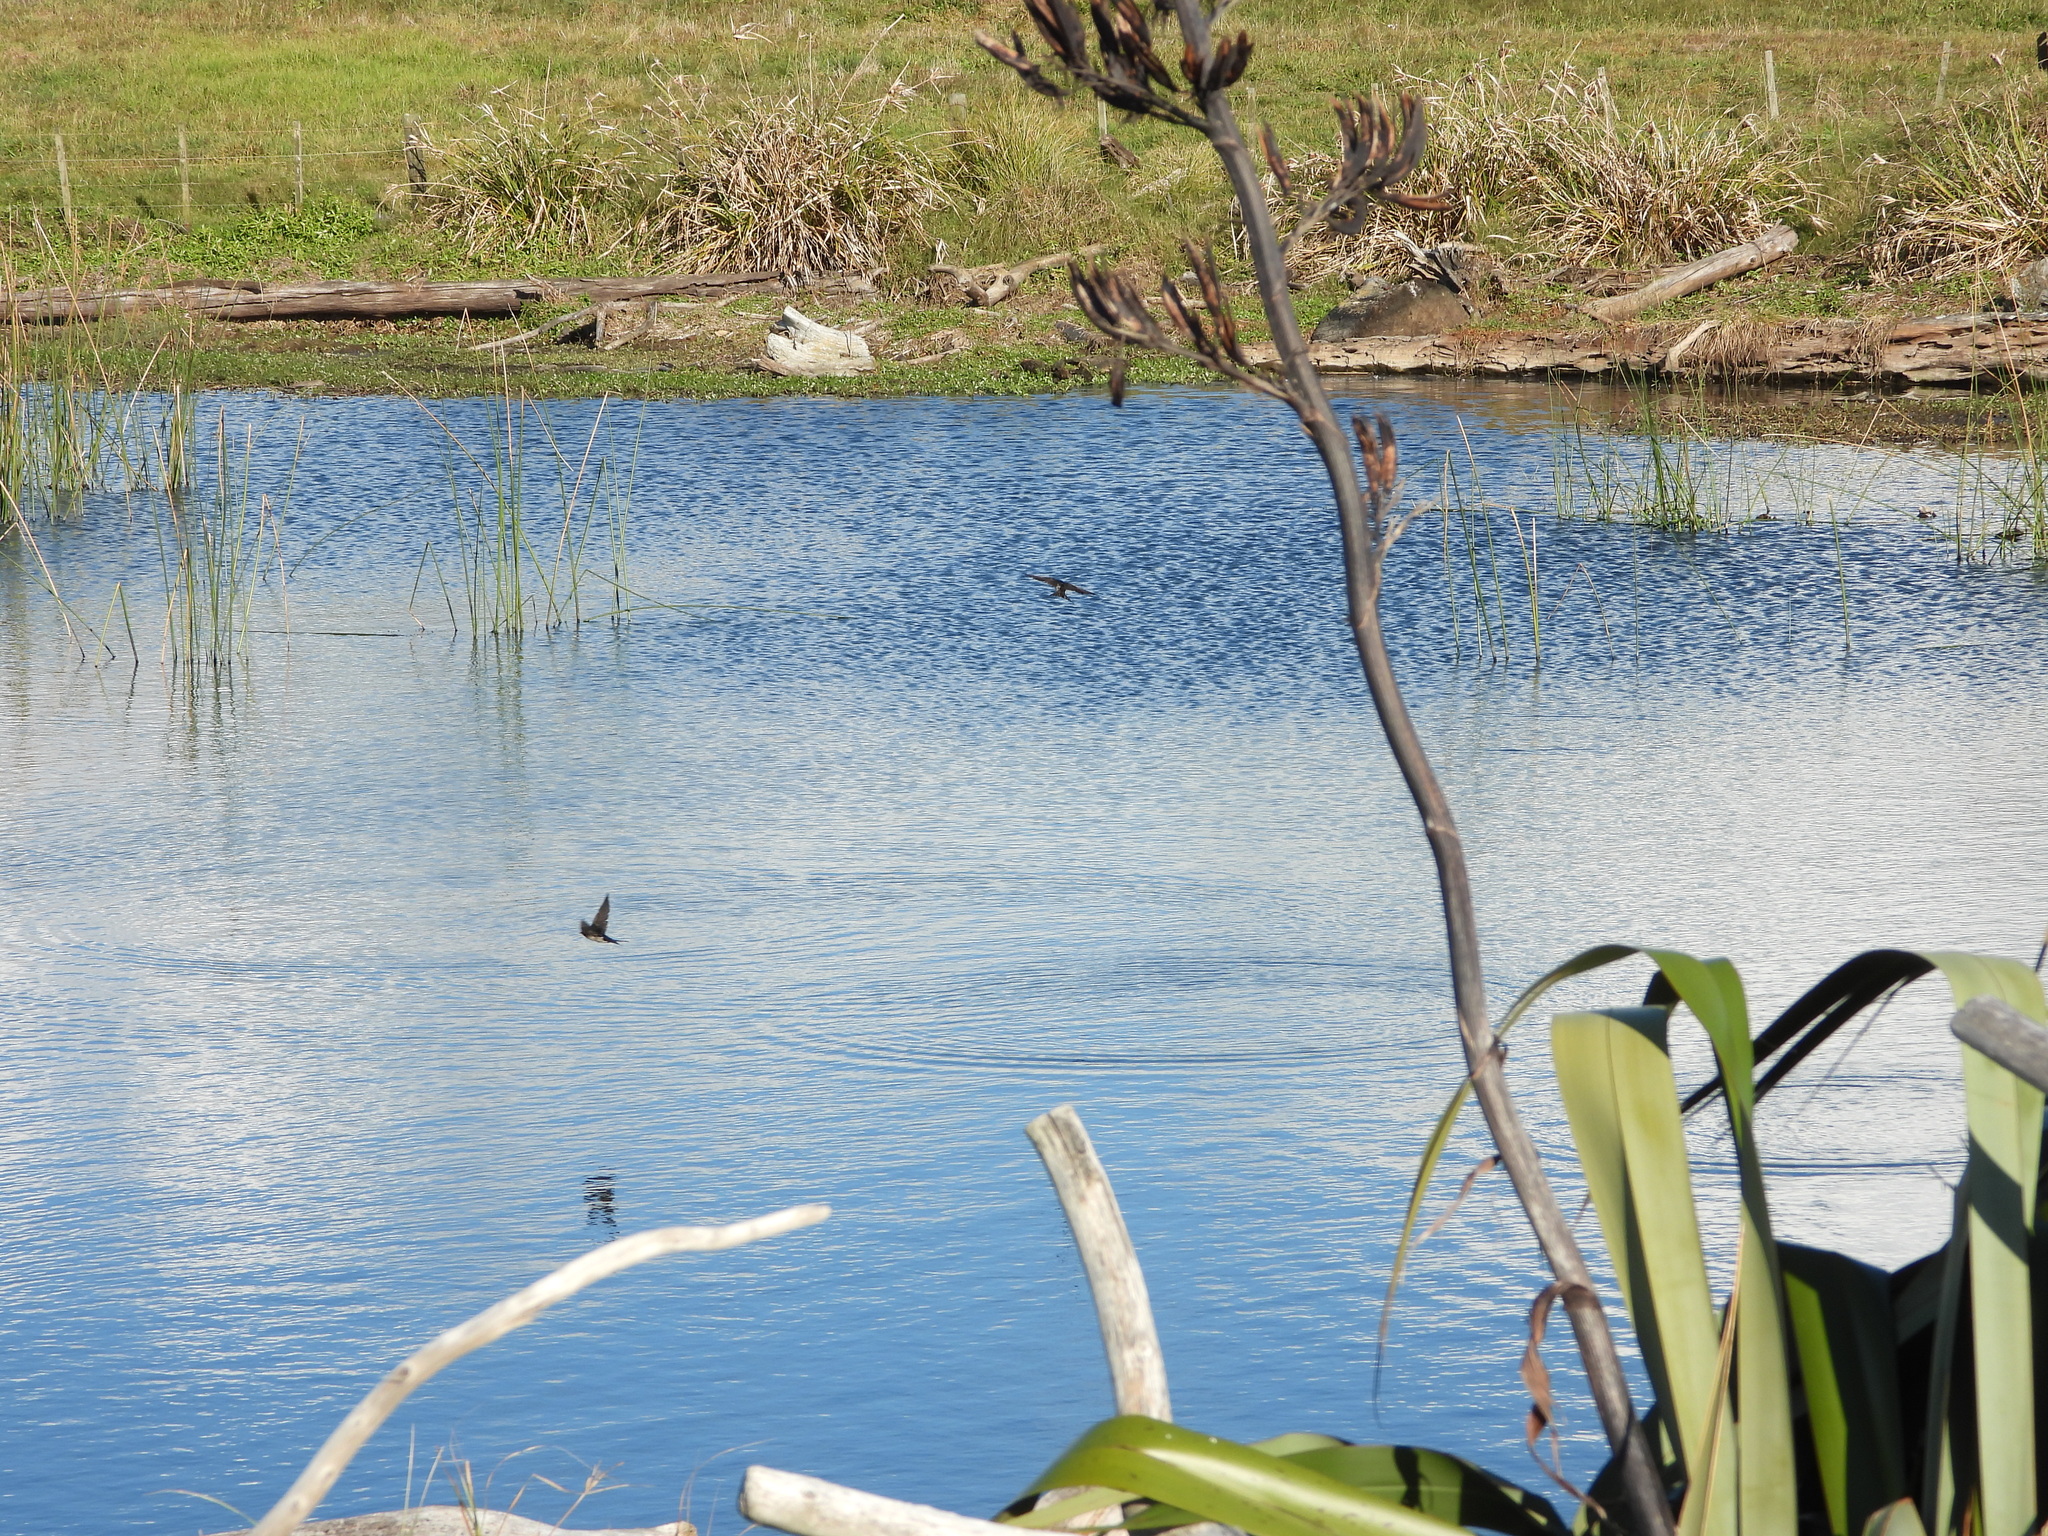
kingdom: Animalia
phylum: Chordata
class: Aves
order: Passeriformes
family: Hirundinidae
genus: Hirundo
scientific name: Hirundo neoxena
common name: Welcome swallow
